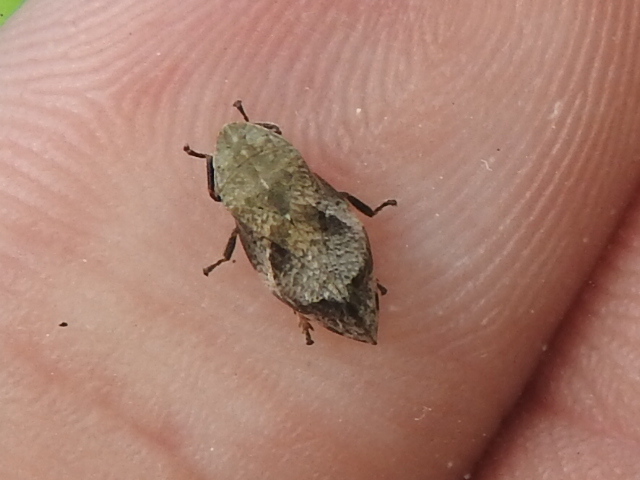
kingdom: Animalia
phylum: Arthropoda
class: Insecta
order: Hemiptera
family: Aphrophoridae
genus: Lepyronia
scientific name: Lepyronia quadrangularis
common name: Diamond-backed spittlebug
